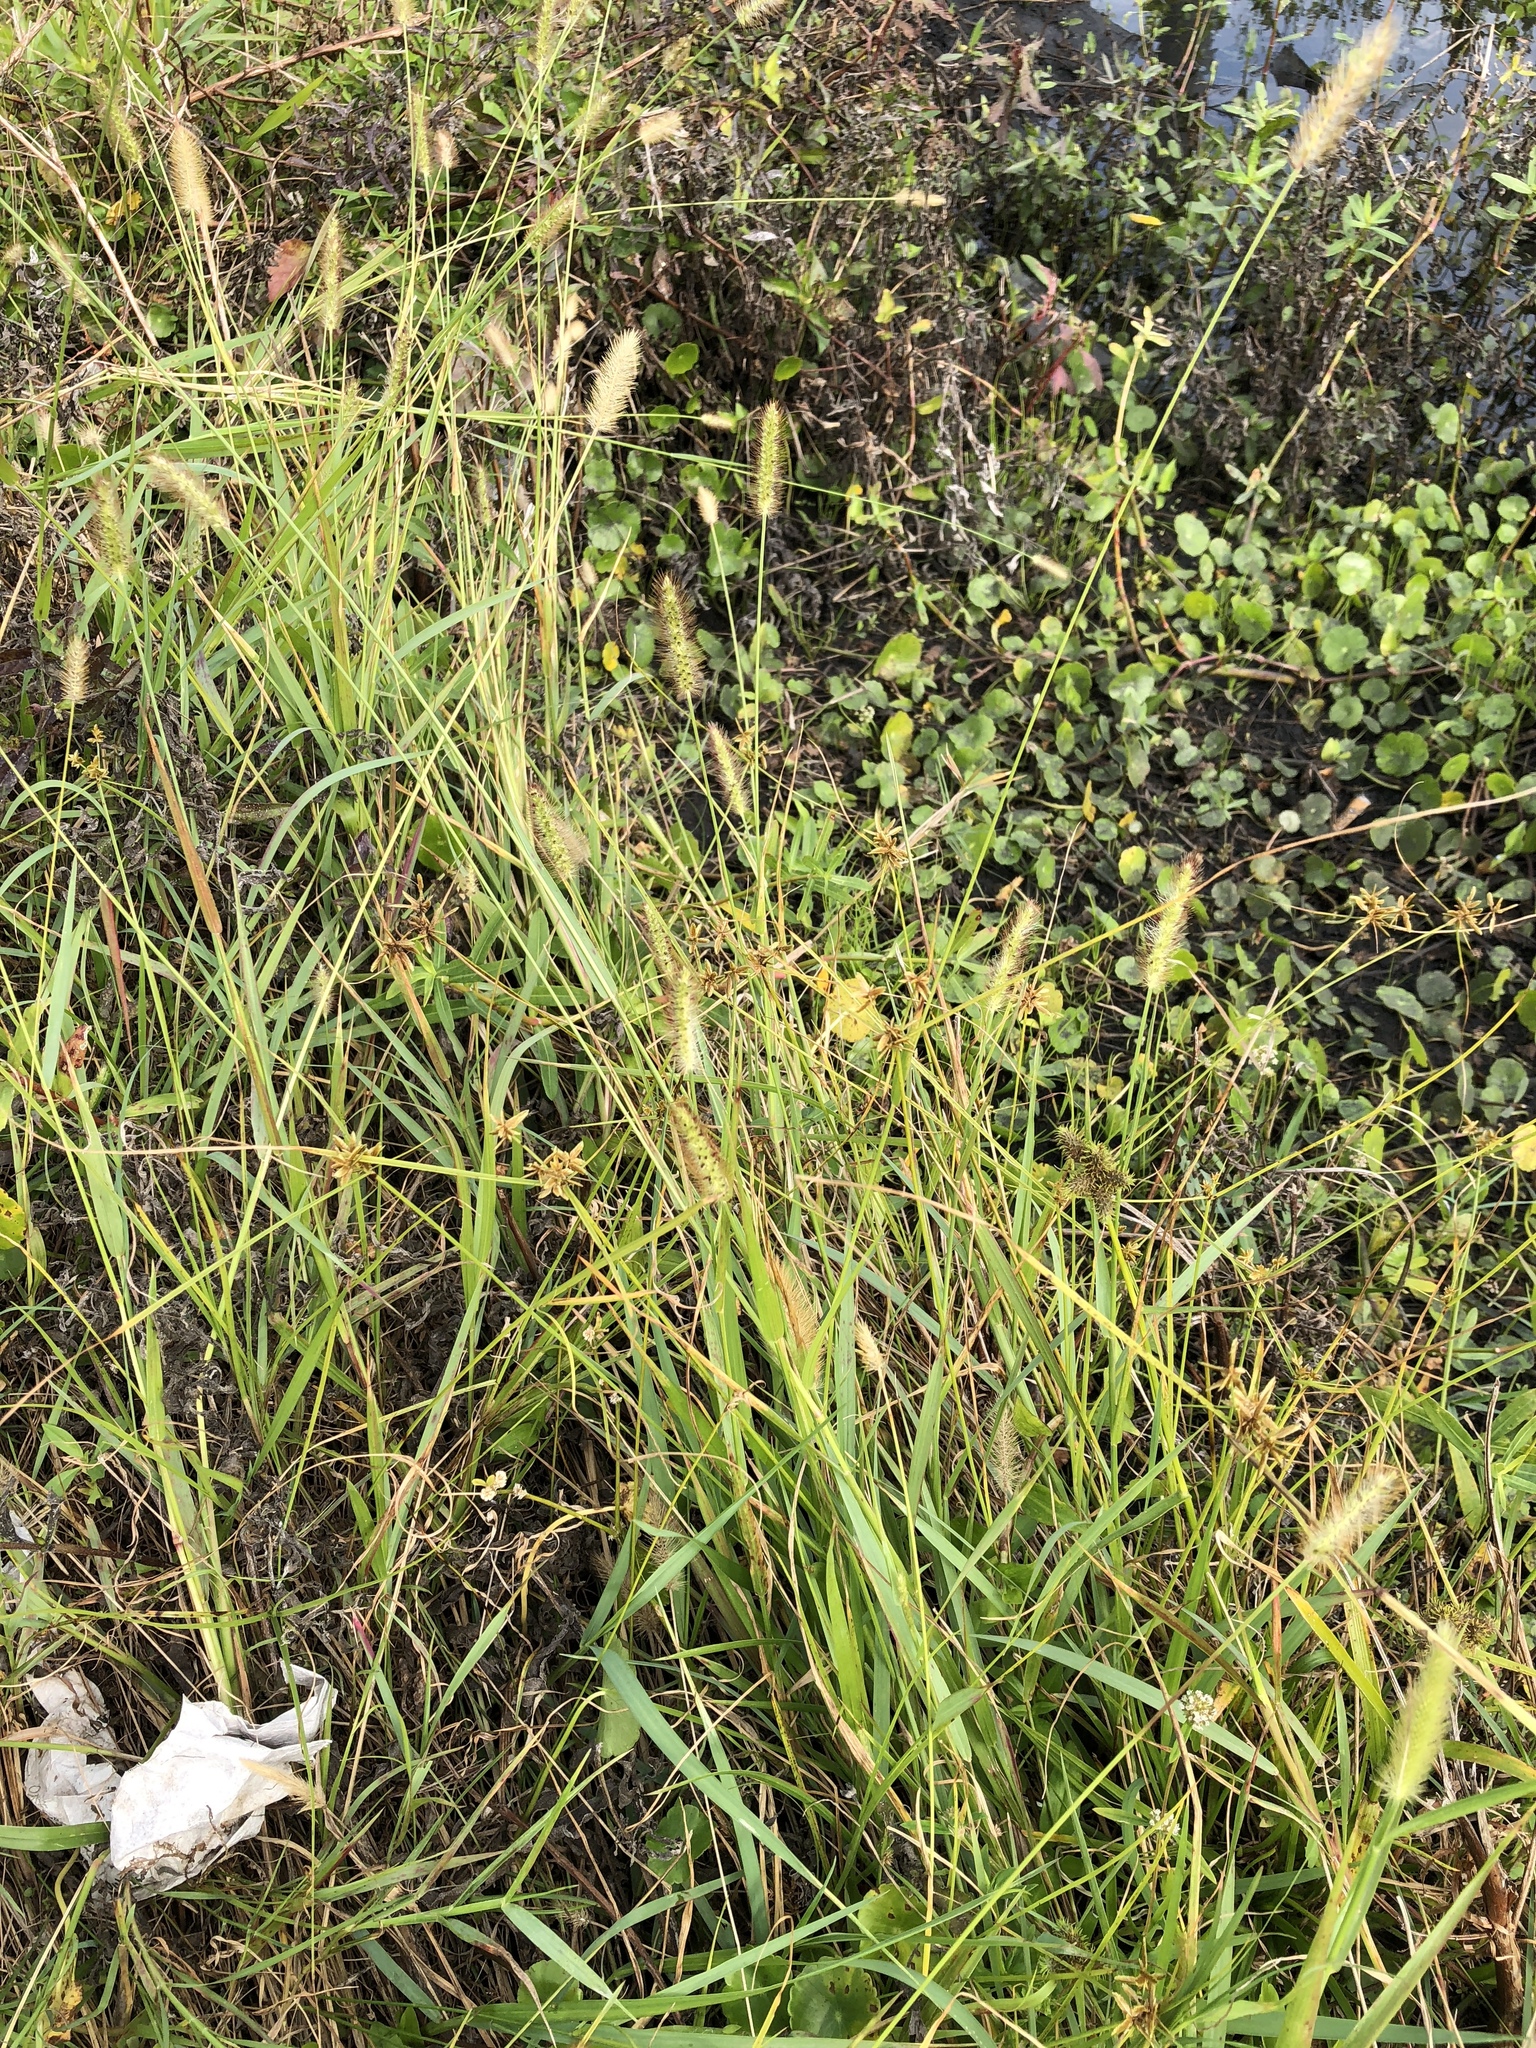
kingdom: Plantae
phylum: Tracheophyta
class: Liliopsida
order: Poales
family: Poaceae
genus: Setaria
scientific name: Setaria parviflora
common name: Knotroot bristle-grass
